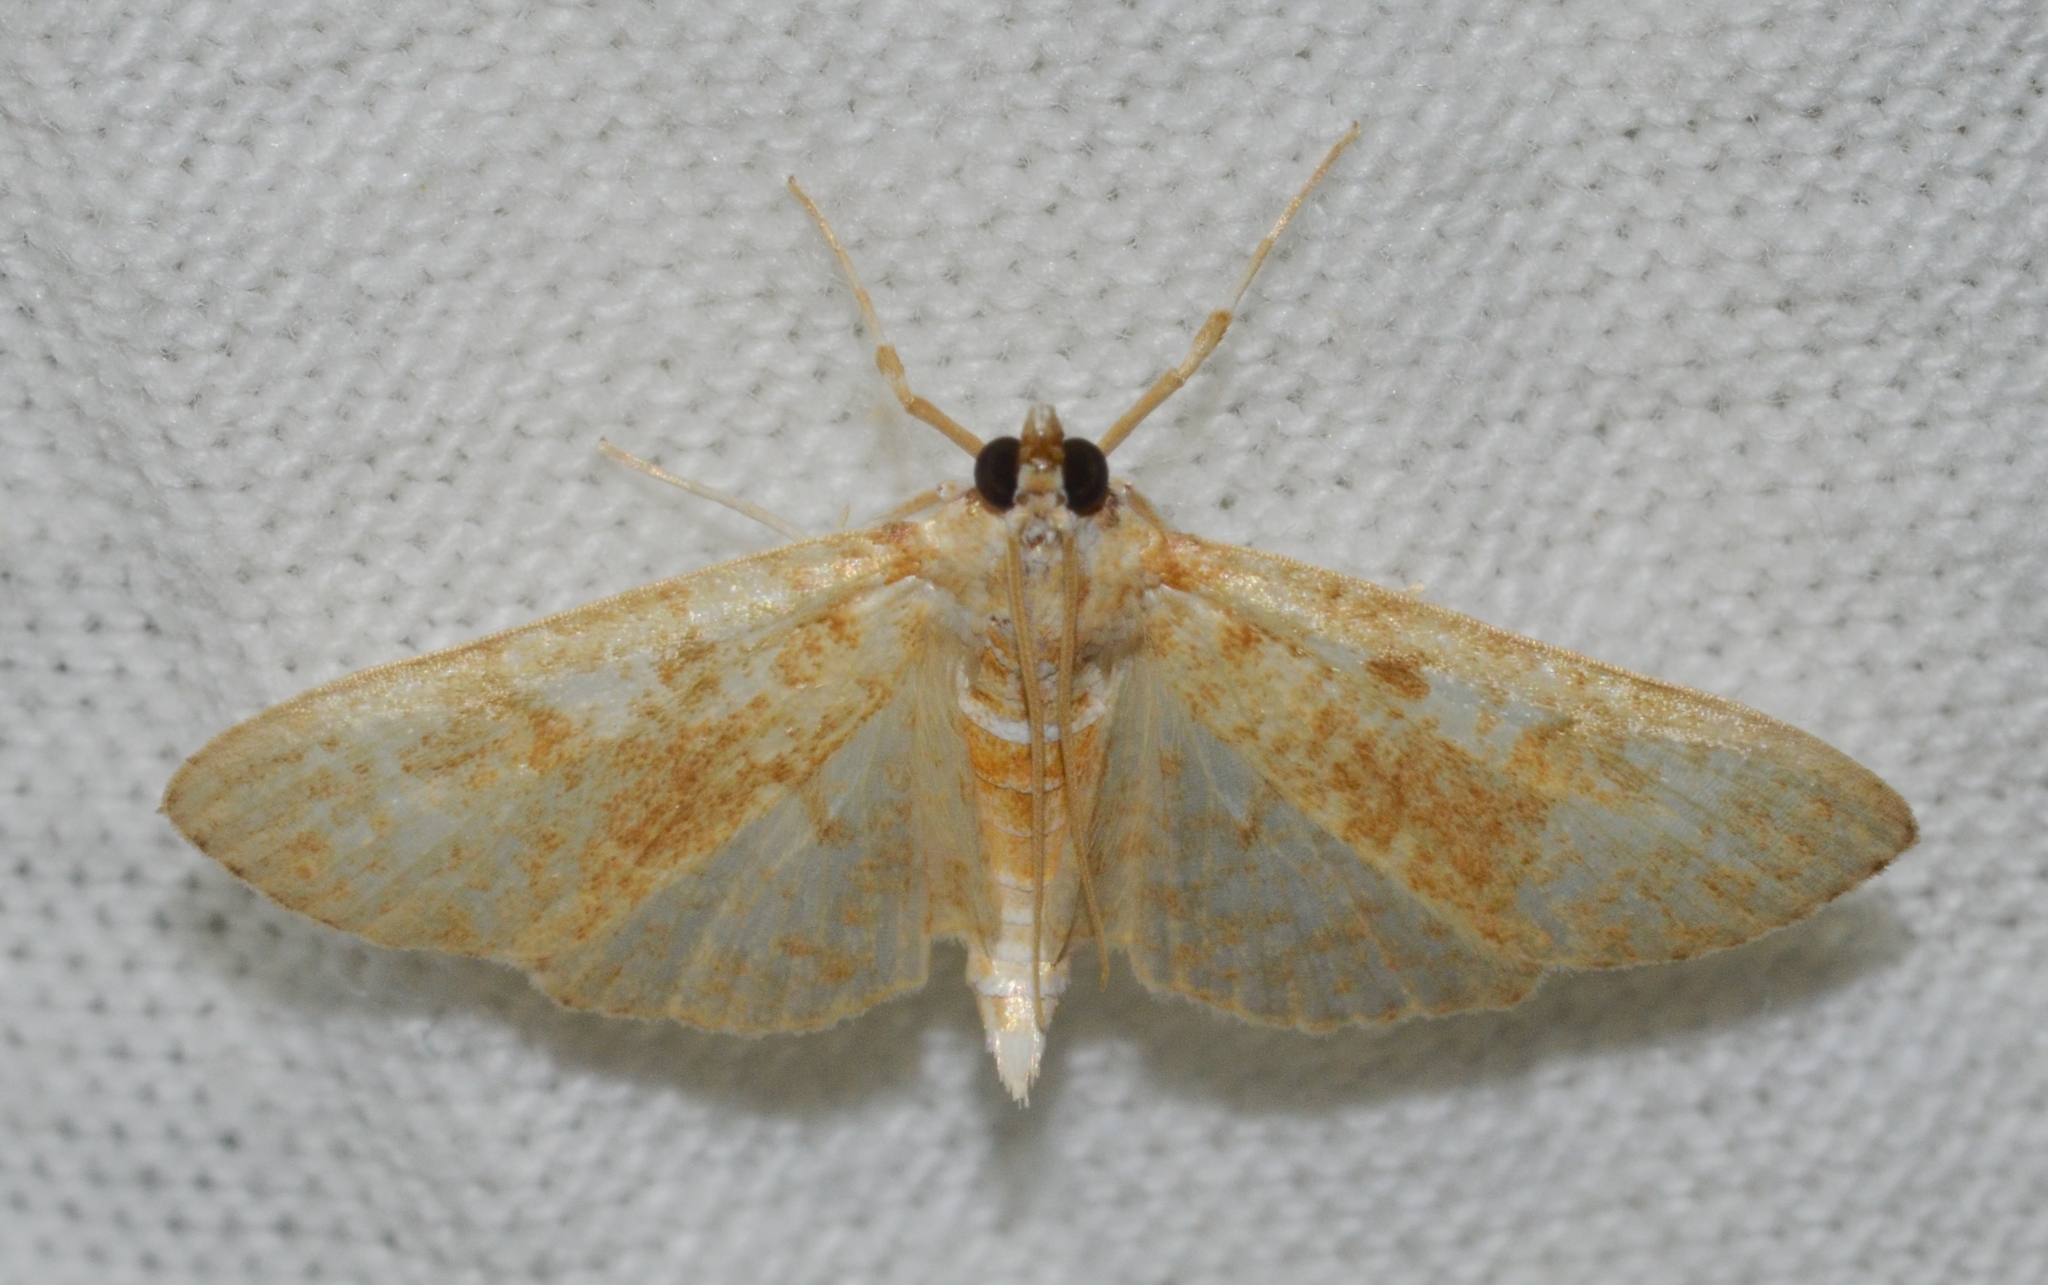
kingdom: Animalia
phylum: Arthropoda
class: Insecta
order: Lepidoptera
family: Crambidae
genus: Palpita
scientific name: Palpita freemanalis
